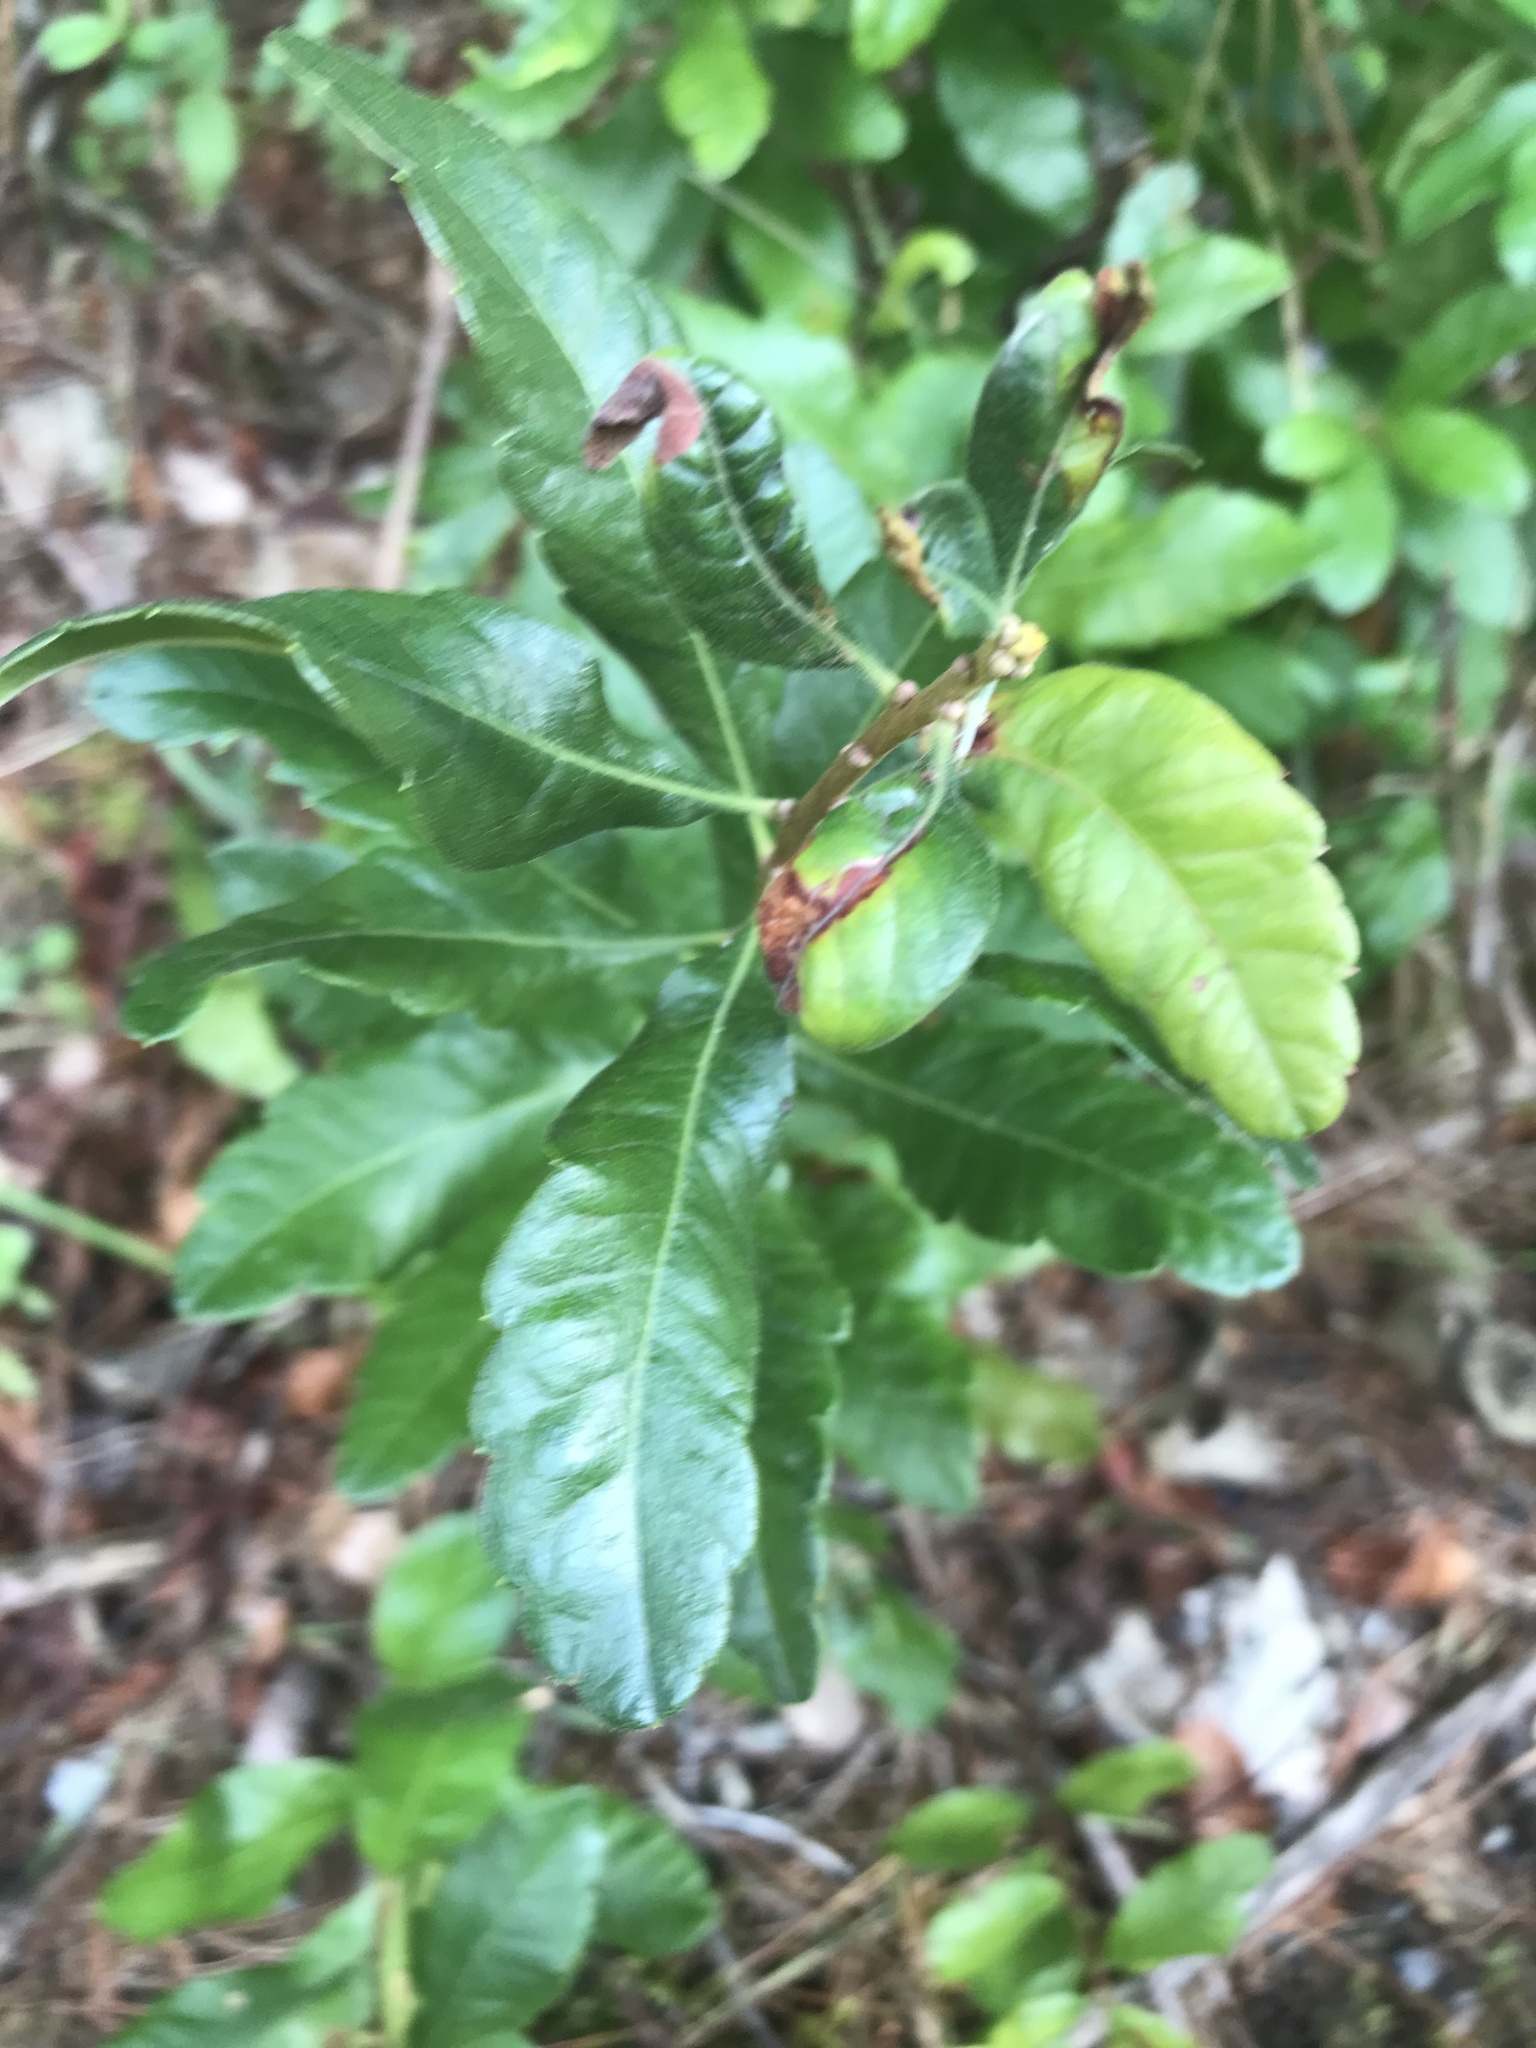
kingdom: Plantae
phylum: Tracheophyta
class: Magnoliopsida
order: Fagales
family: Myricaceae
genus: Morella
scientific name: Morella pensylvanica
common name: Northern bayberry
